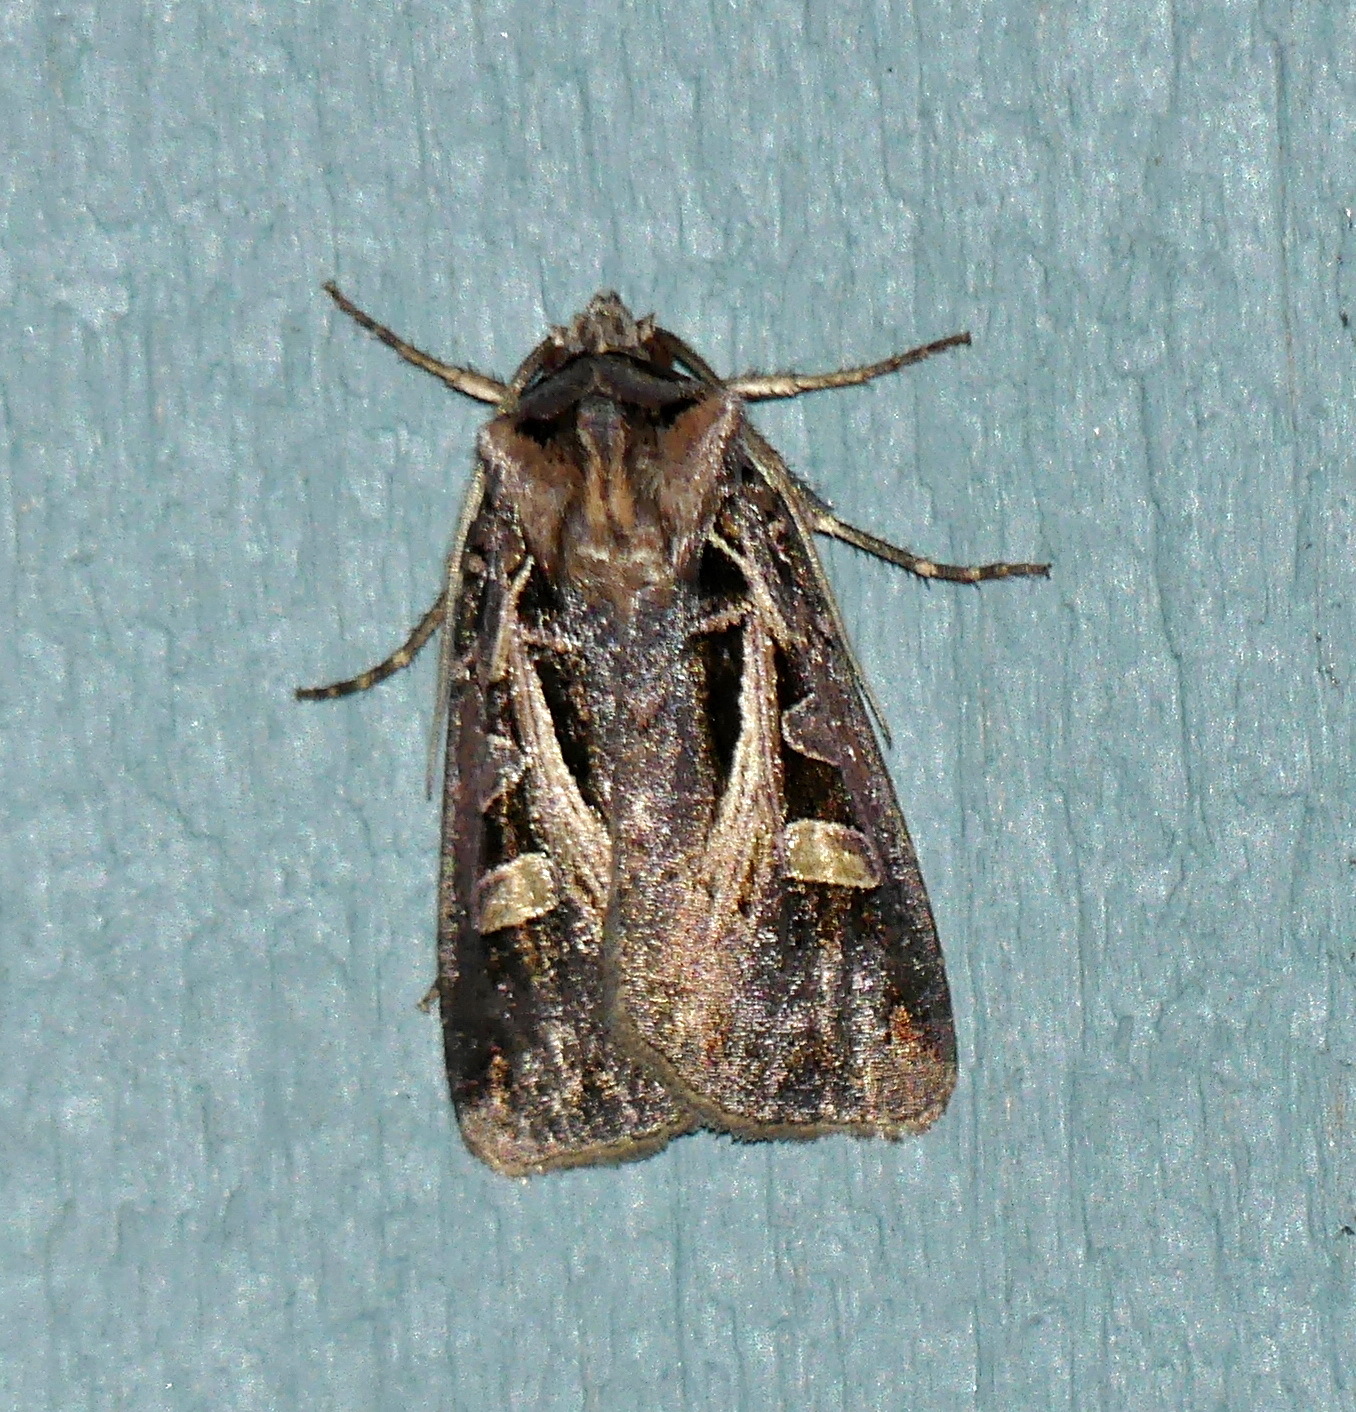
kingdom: Animalia
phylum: Arthropoda
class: Insecta
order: Lepidoptera
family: Noctuidae
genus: Feltia
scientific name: Feltia herilis
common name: Master's dart
